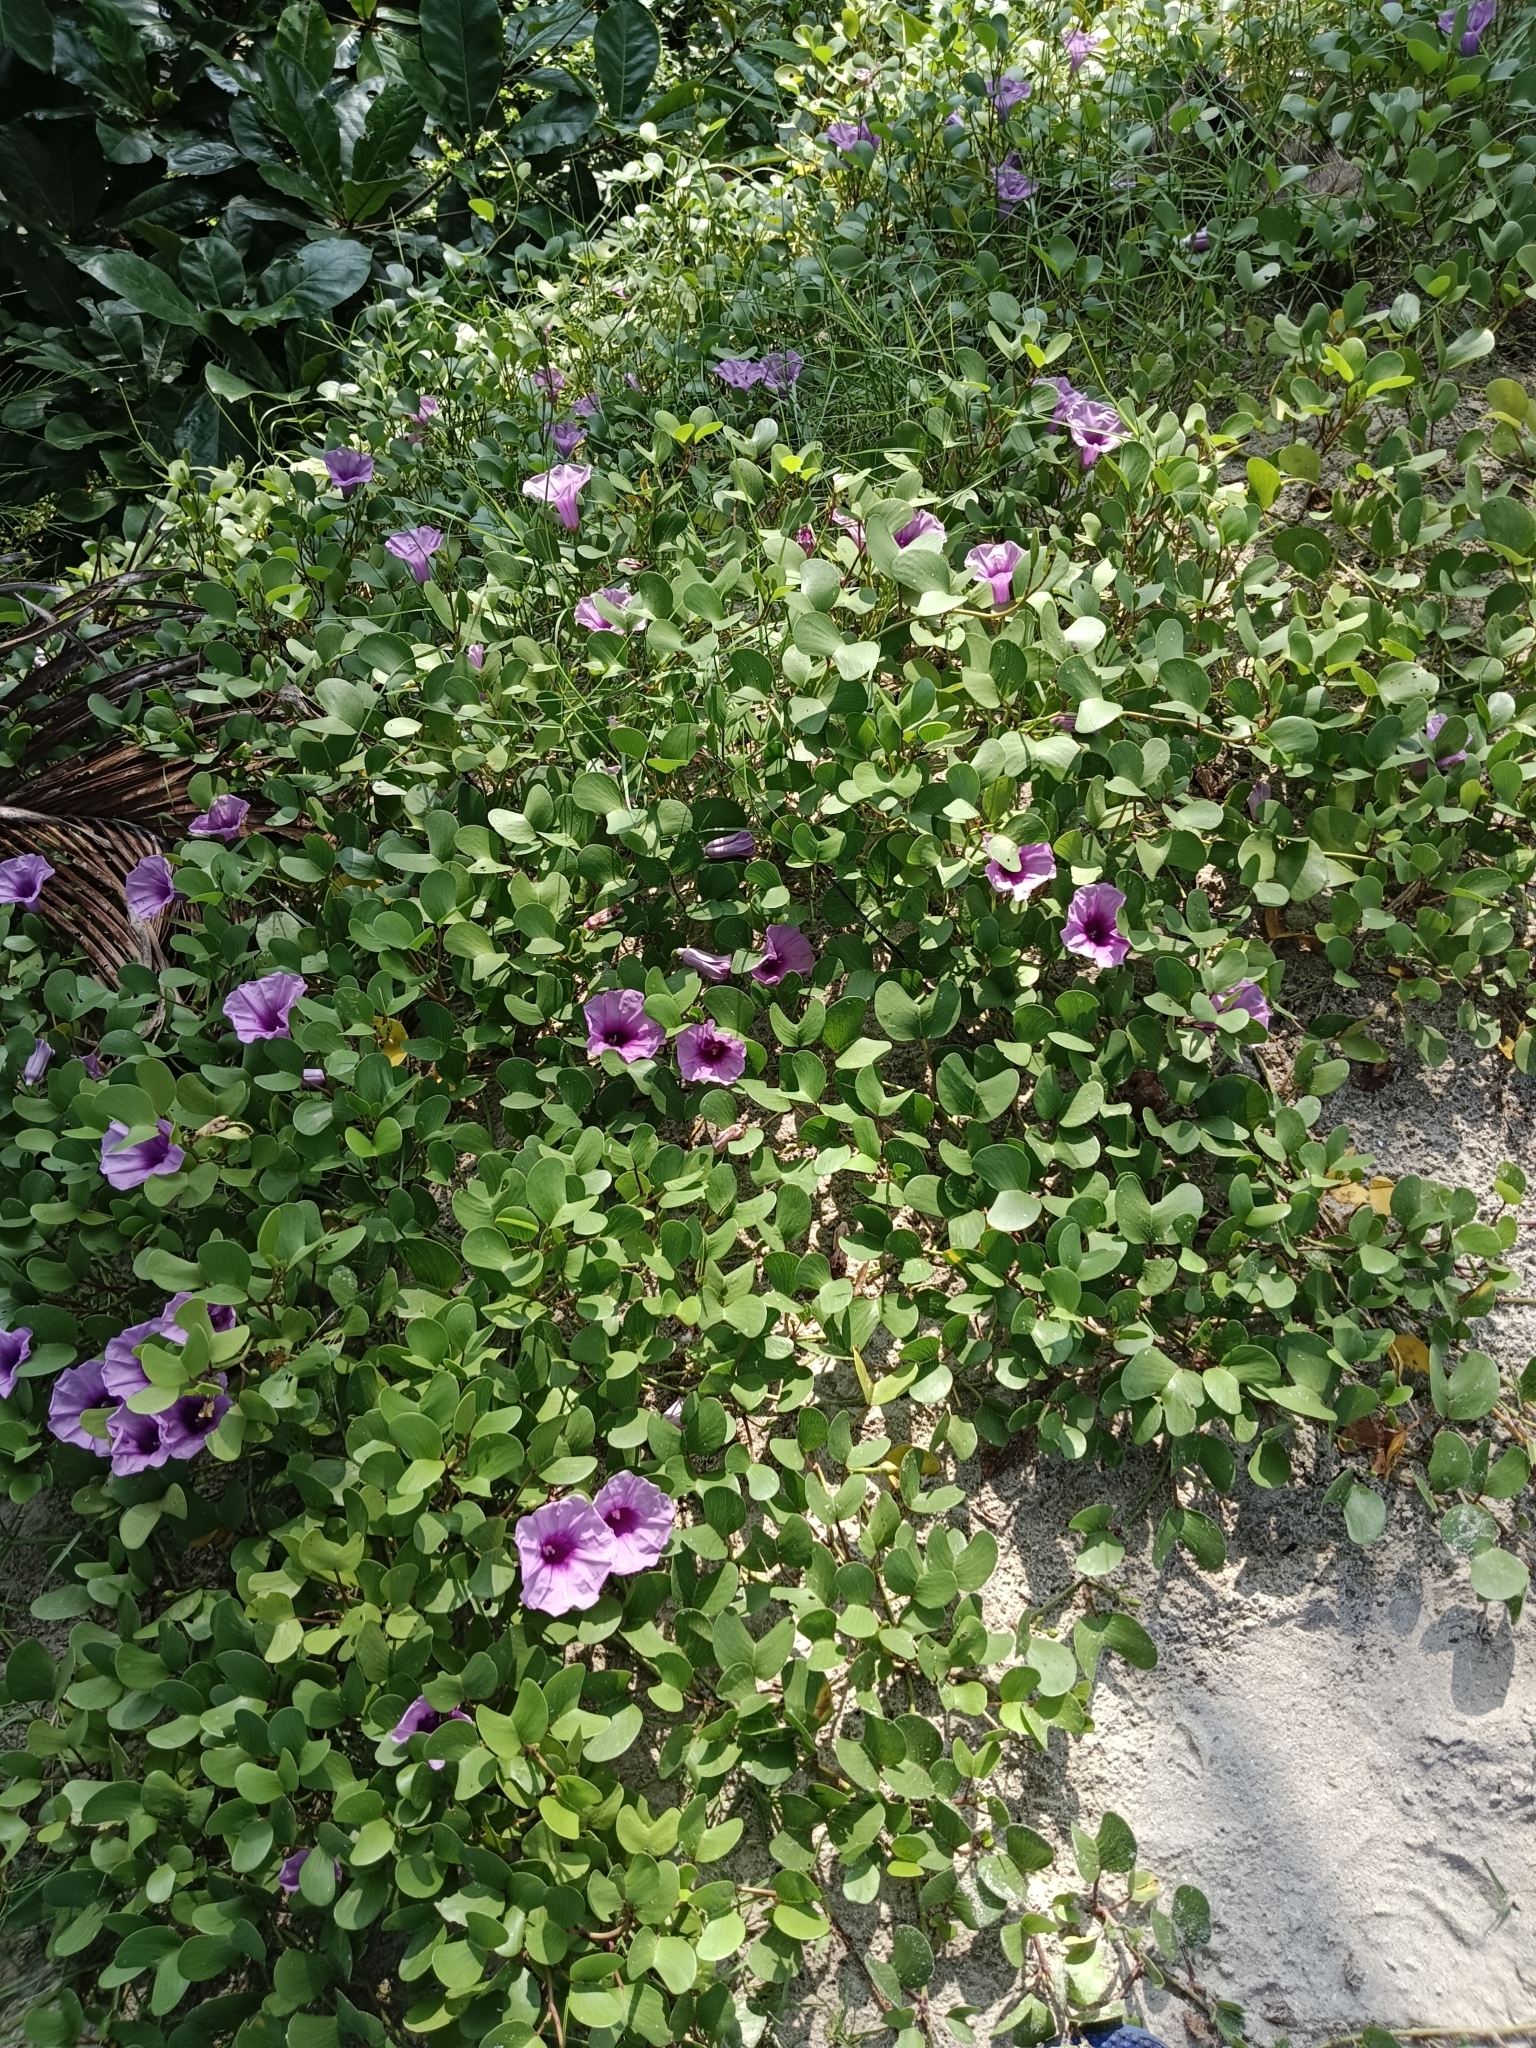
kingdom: Plantae
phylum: Tracheophyta
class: Magnoliopsida
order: Solanales
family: Convolvulaceae
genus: Ipomoea
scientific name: Ipomoea pes-caprae
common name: Beach morning glory
